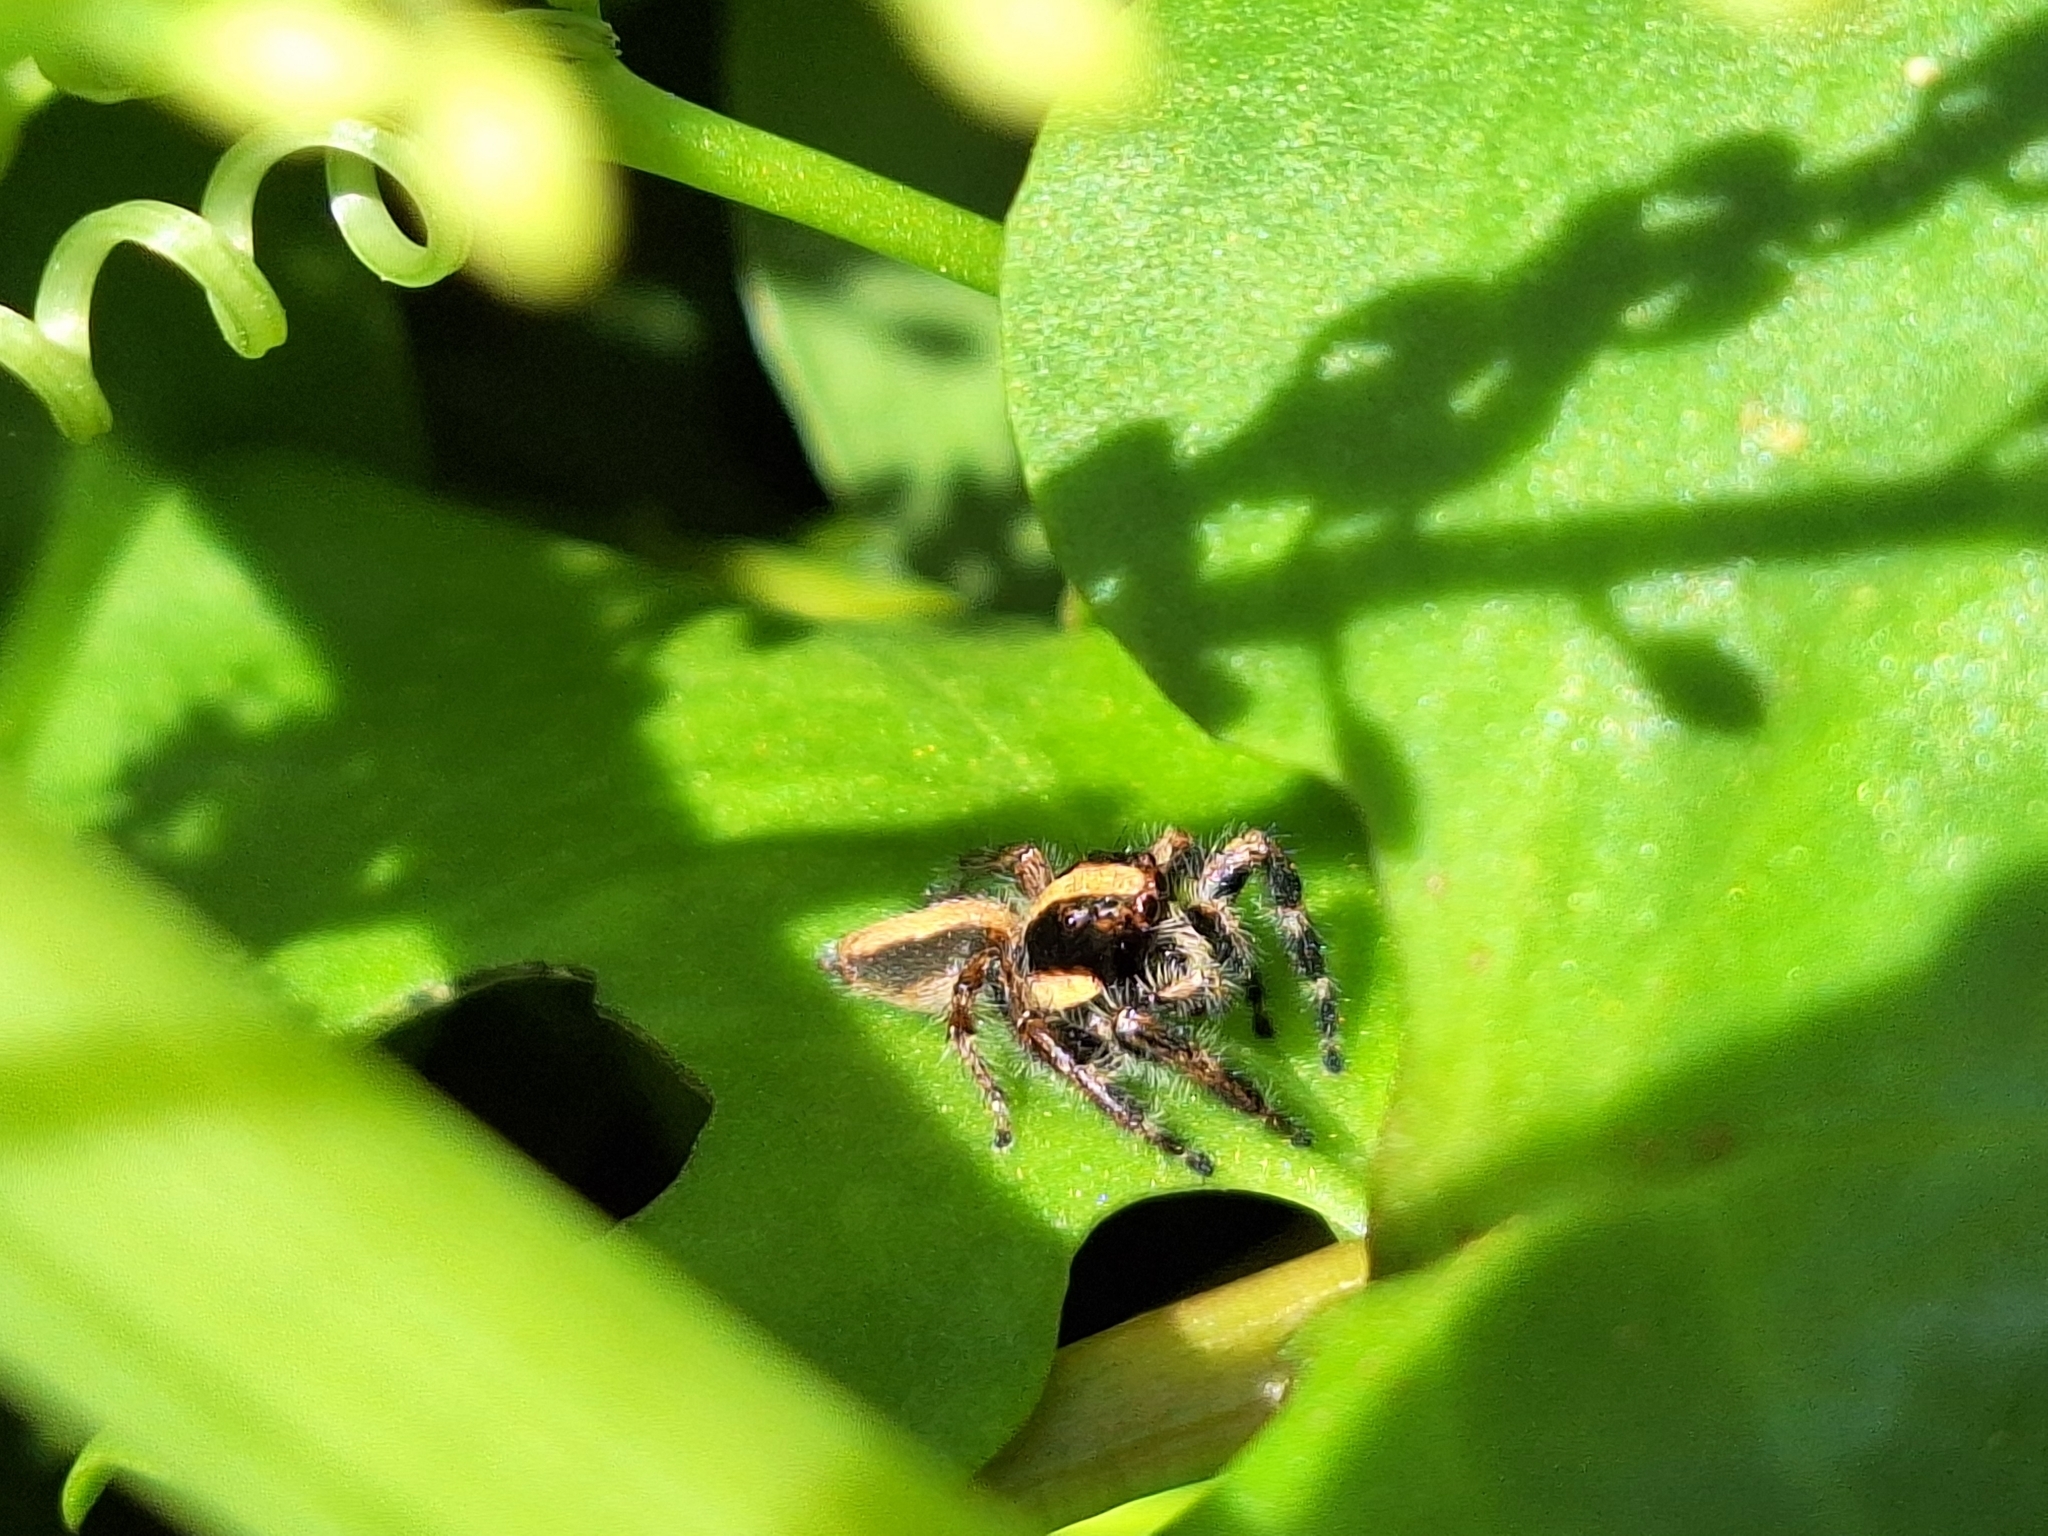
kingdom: Animalia
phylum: Arthropoda
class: Arachnida
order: Araneae
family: Salticidae
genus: Megafreya
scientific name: Megafreya sutrix
